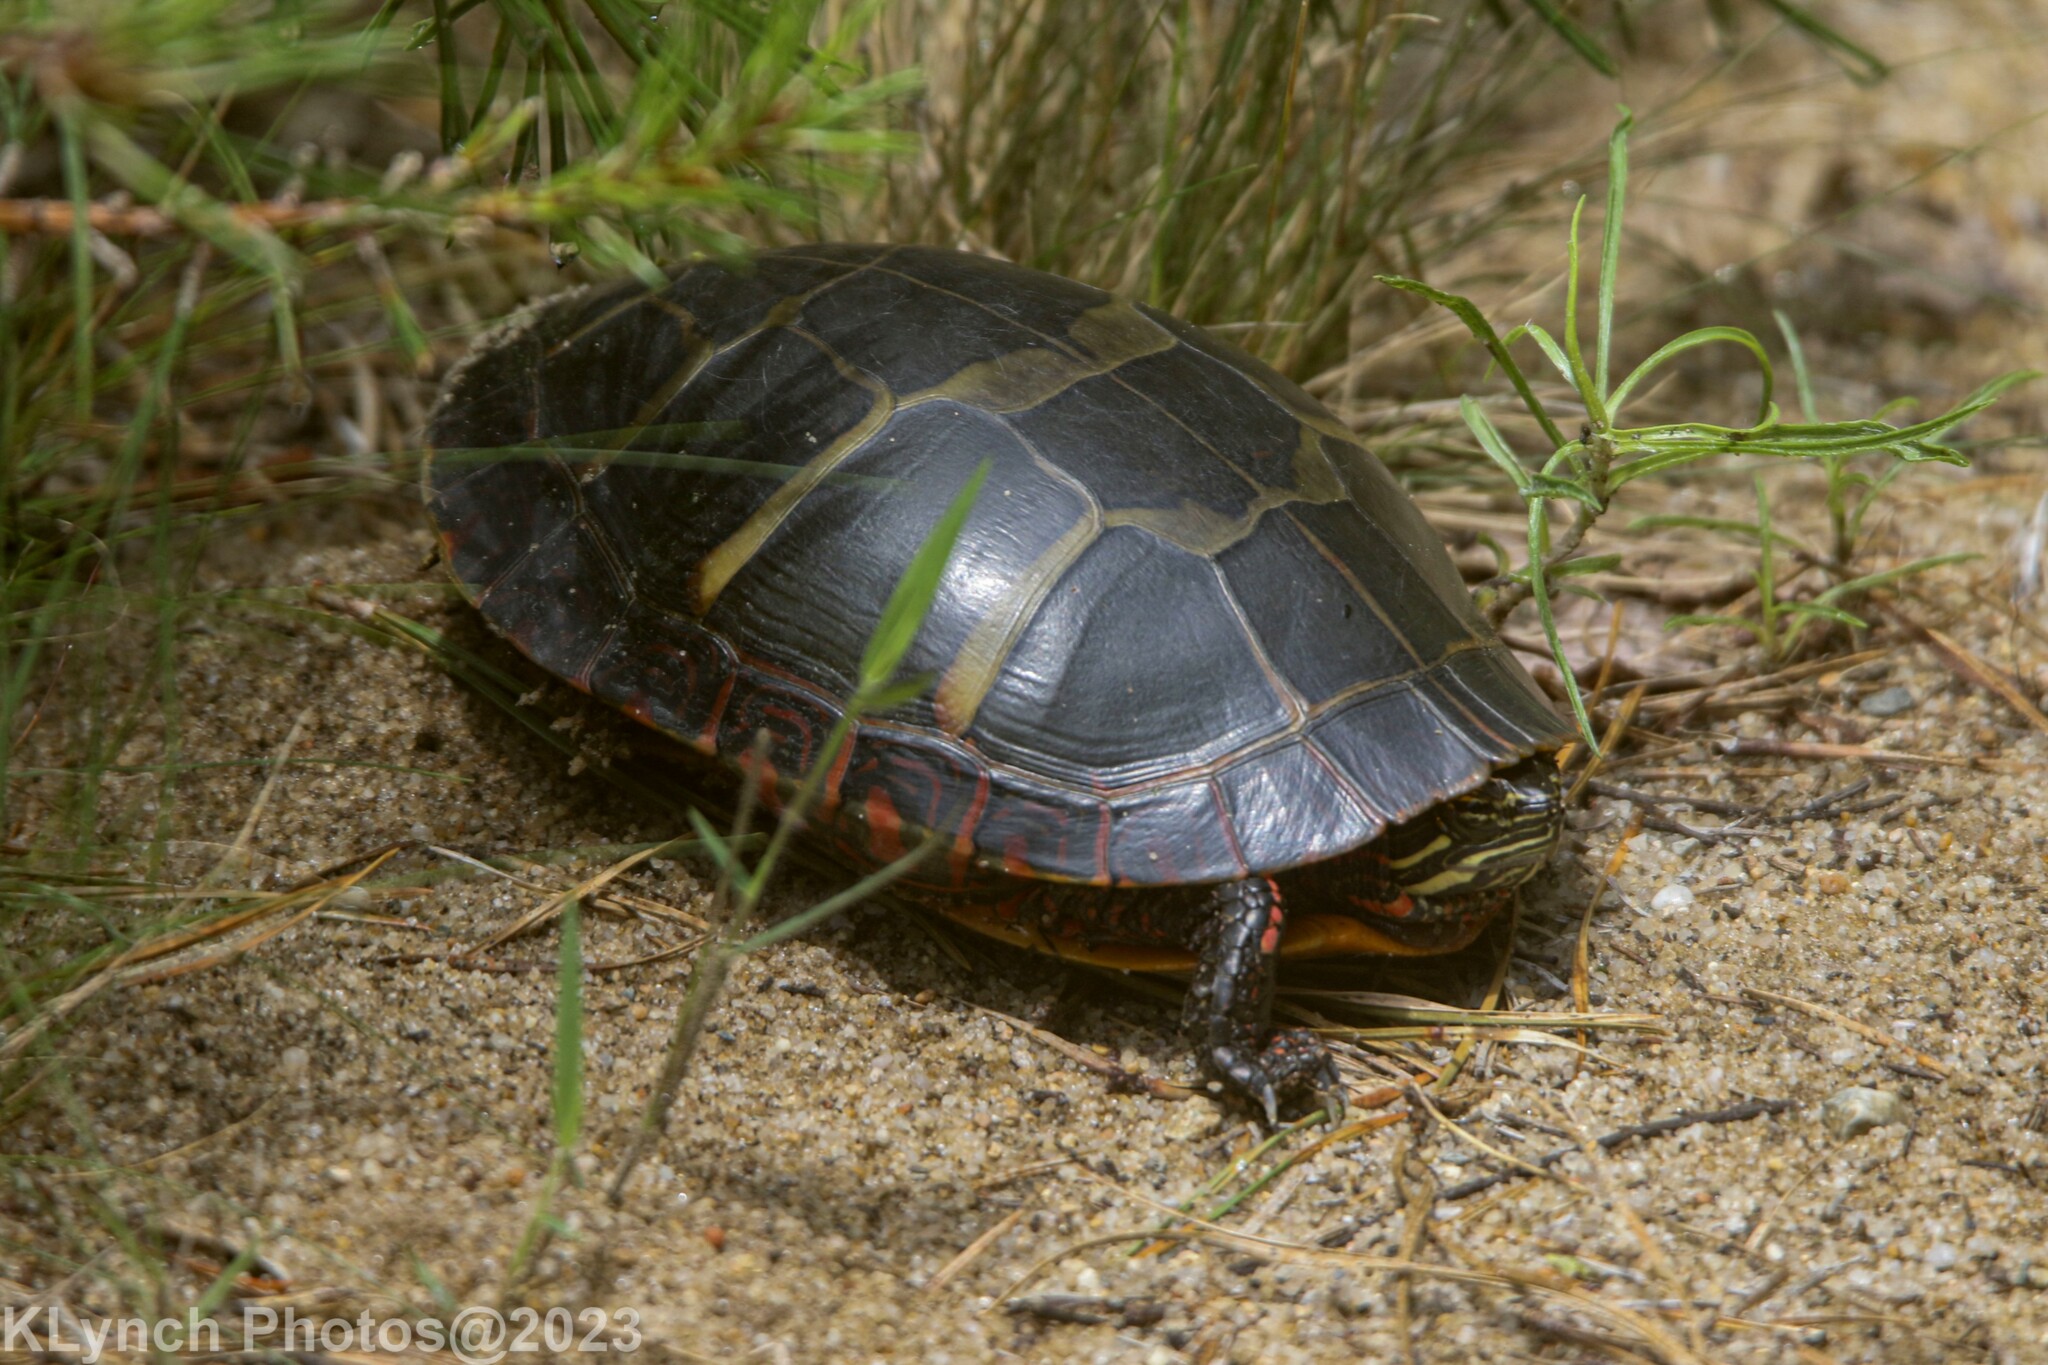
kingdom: Animalia
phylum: Chordata
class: Testudines
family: Emydidae
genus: Chrysemys
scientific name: Chrysemys picta
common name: Painted turtle
